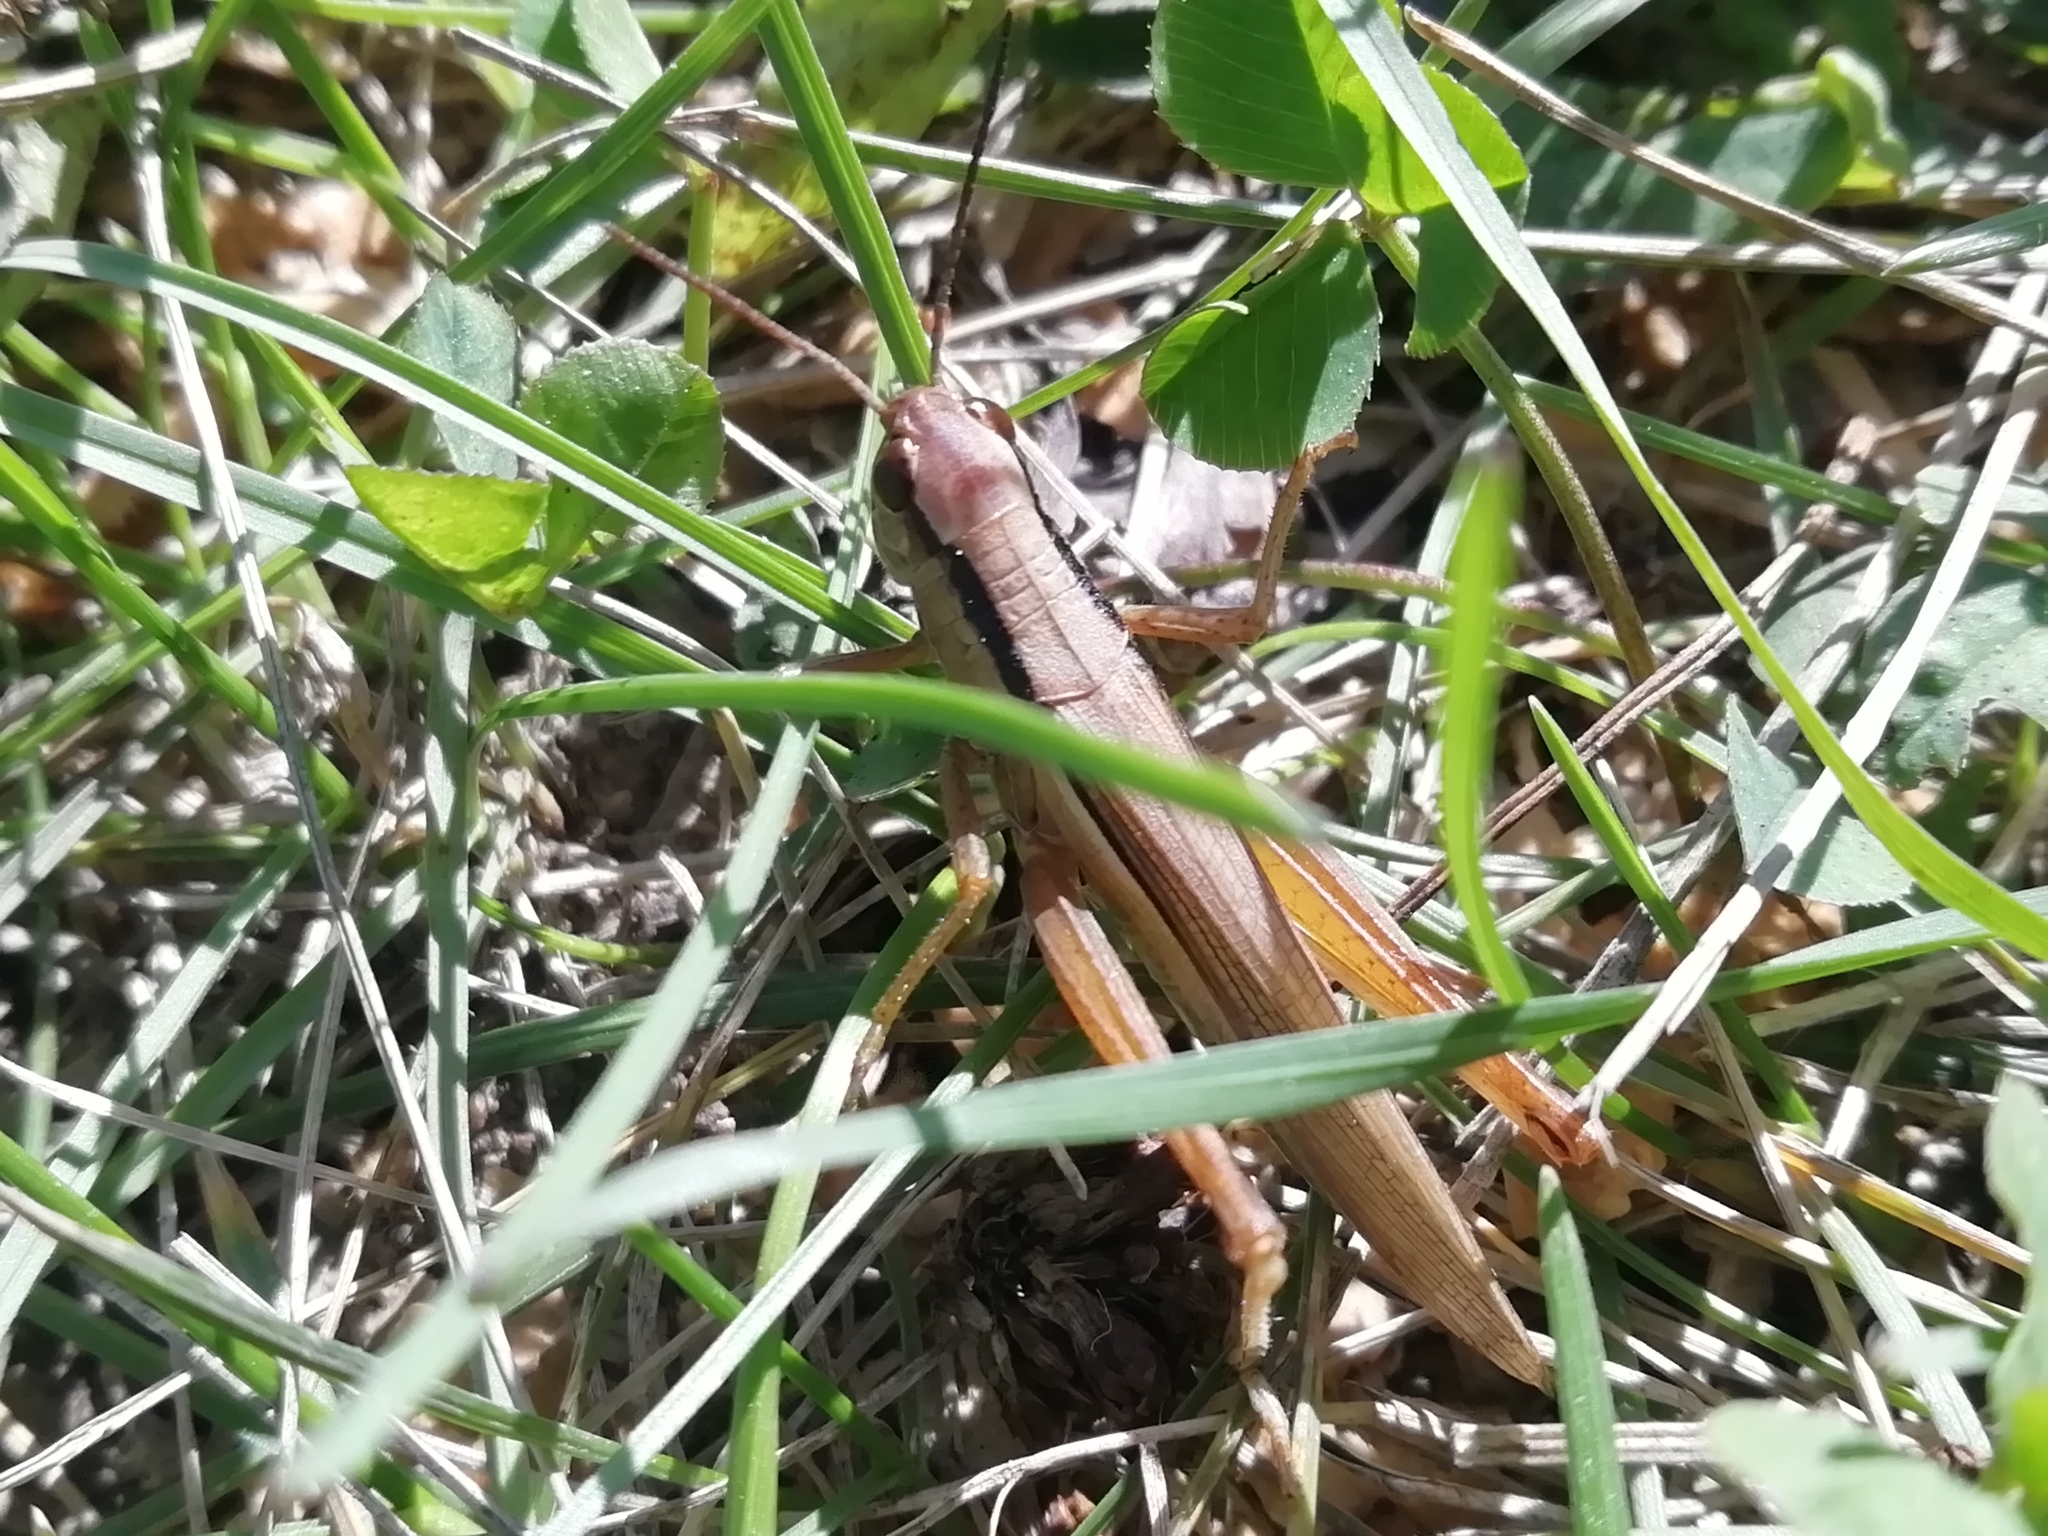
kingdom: Animalia
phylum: Arthropoda
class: Insecta
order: Orthoptera
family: Acrididae
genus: Mecostethus
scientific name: Mecostethus parapleurus
